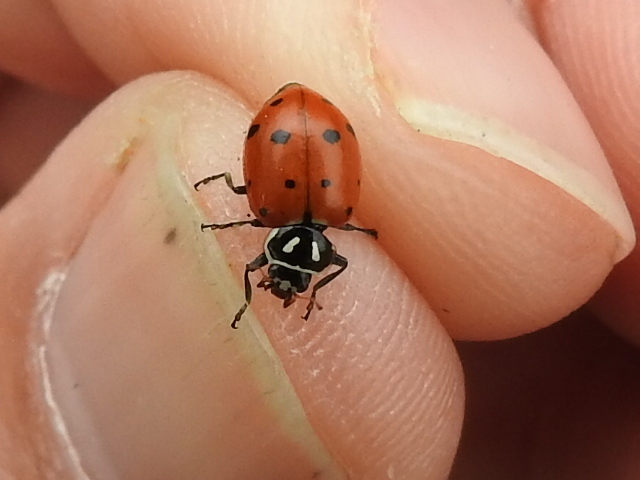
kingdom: Animalia
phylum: Arthropoda
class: Insecta
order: Coleoptera
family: Coccinellidae
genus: Hippodamia
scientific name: Hippodamia convergens
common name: Convergent lady beetle
